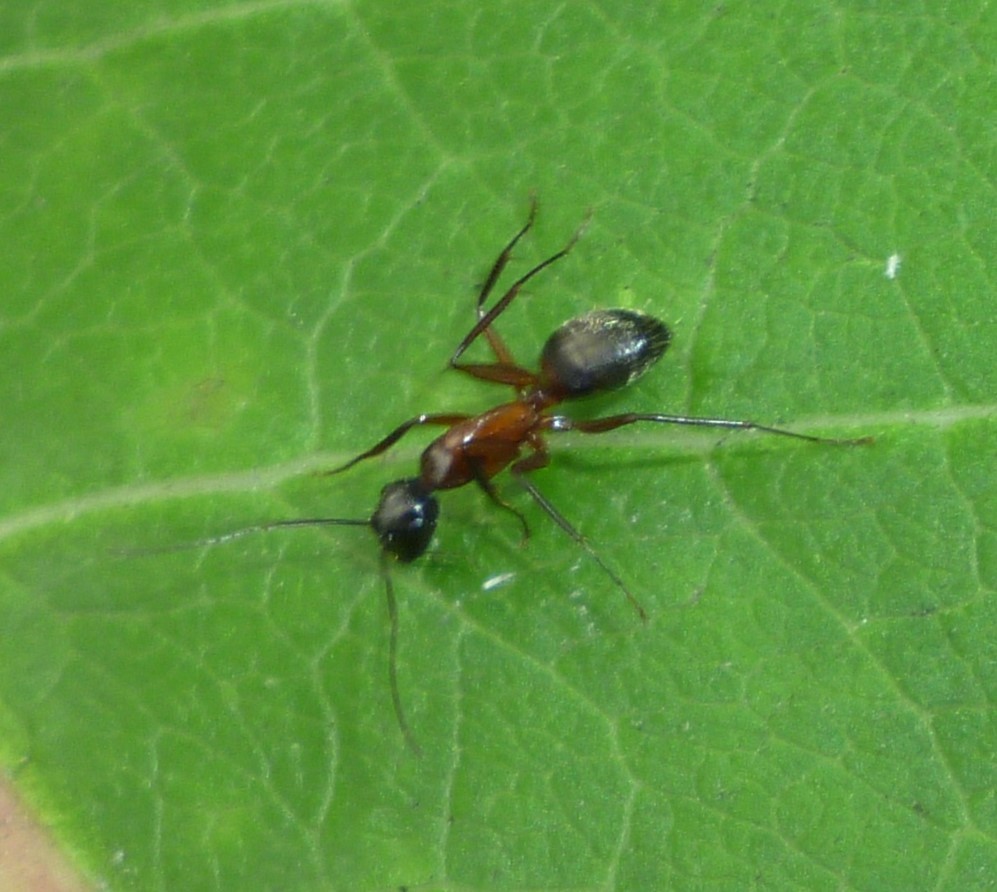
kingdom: Animalia
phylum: Arthropoda
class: Insecta
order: Hymenoptera
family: Formicidae
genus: Camponotus
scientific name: Camponotus chromaiodes
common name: Red carpenter ant
